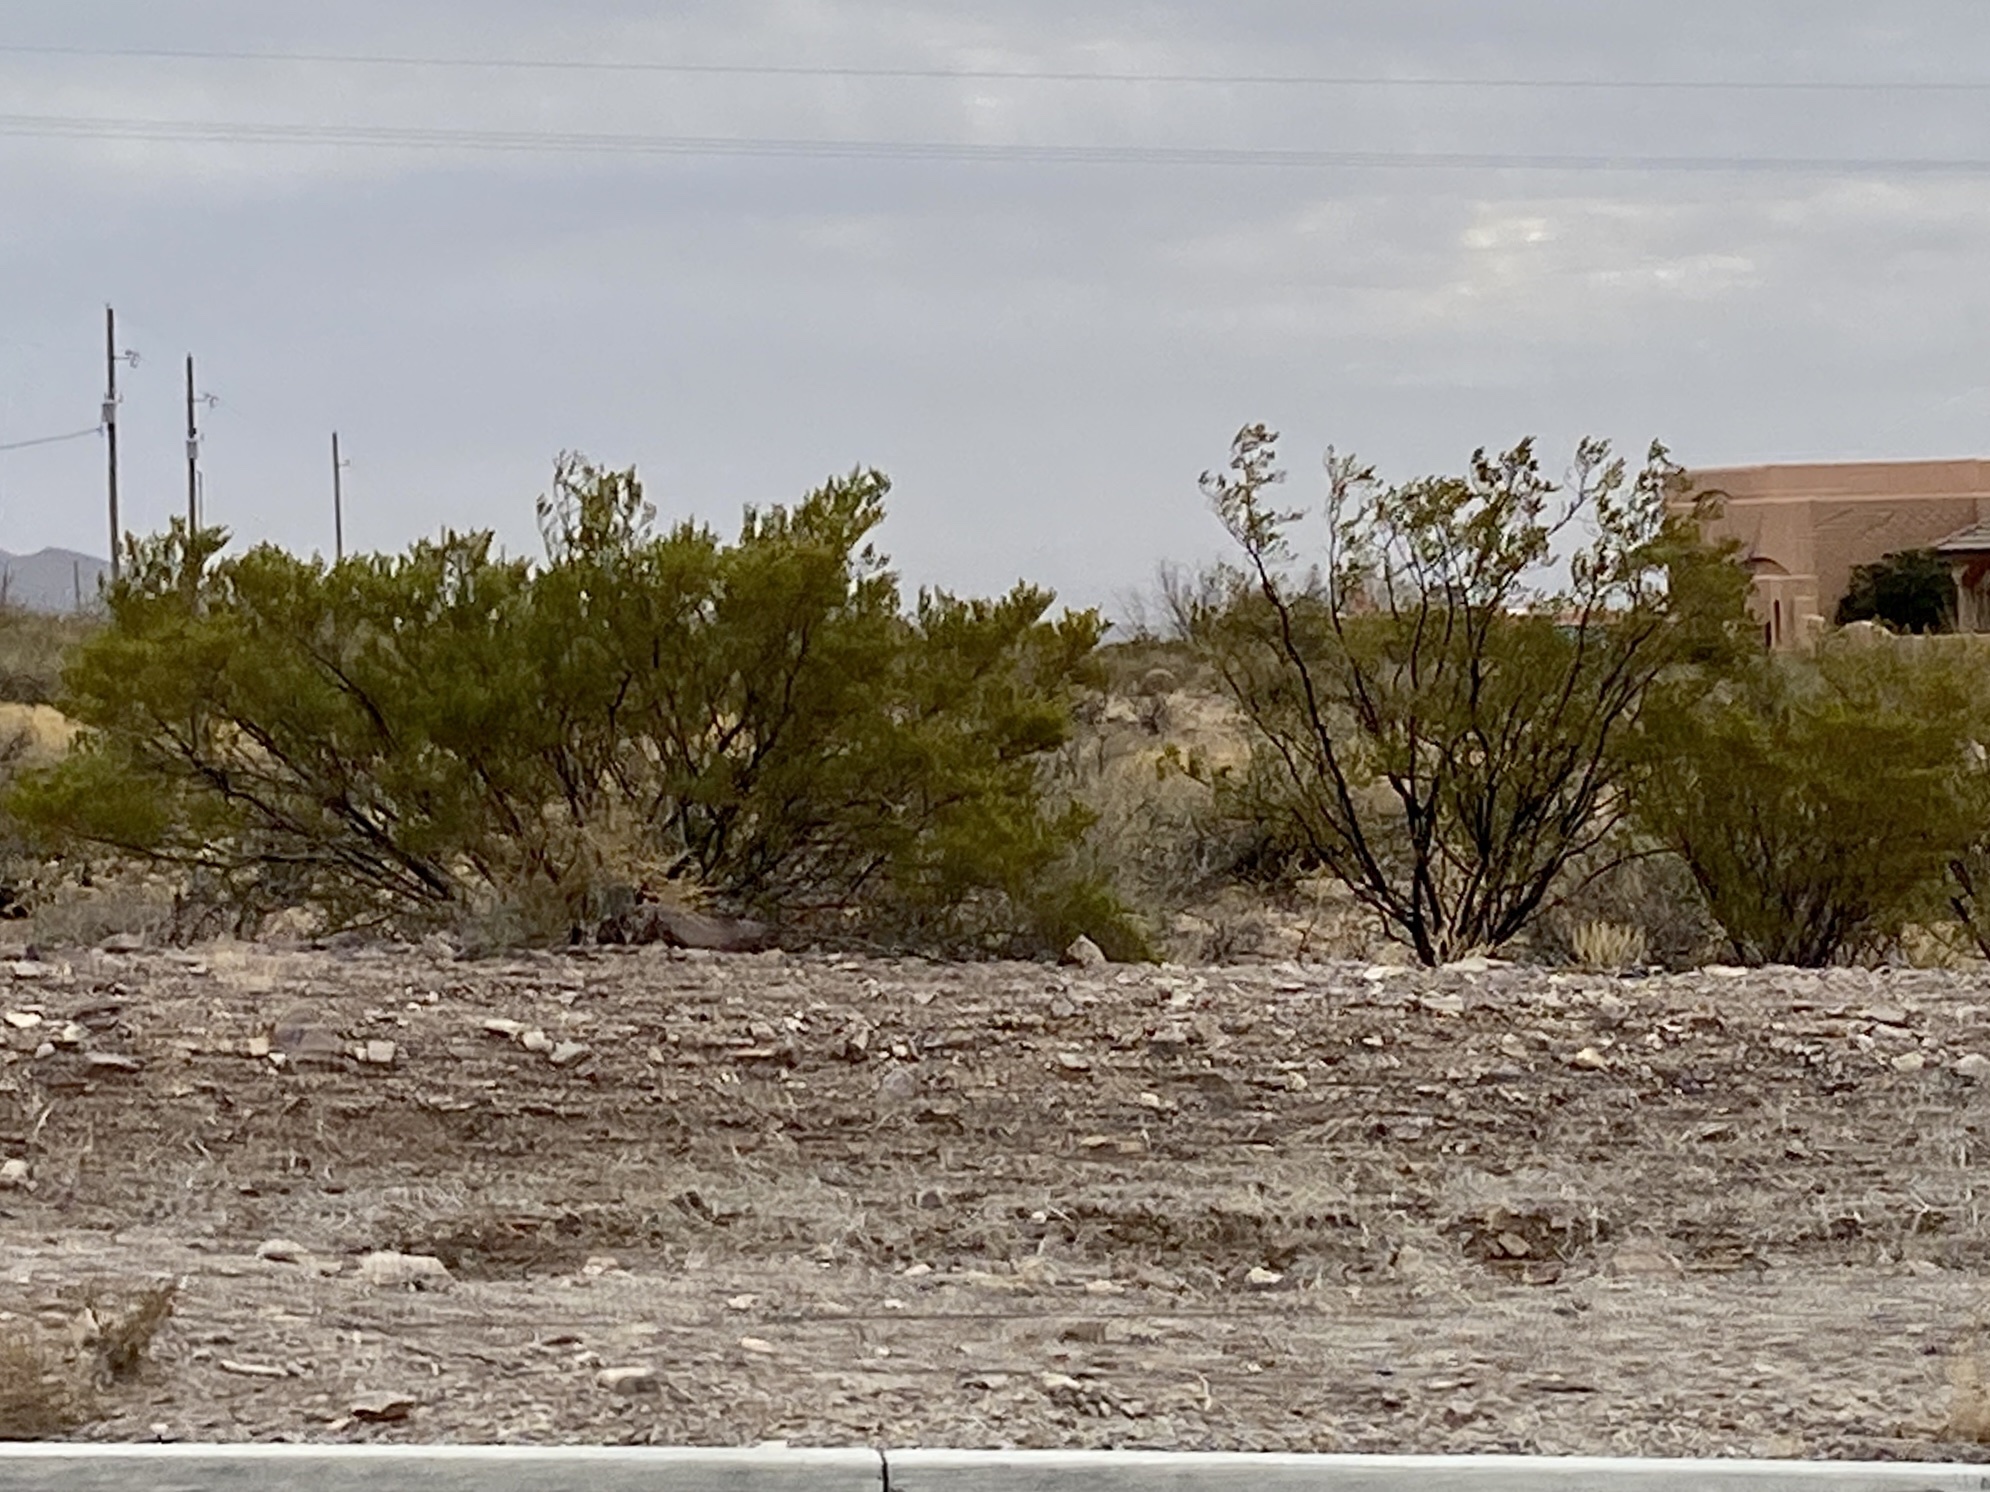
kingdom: Plantae
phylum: Tracheophyta
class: Magnoliopsida
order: Zygophyllales
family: Zygophyllaceae
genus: Larrea
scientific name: Larrea tridentata
